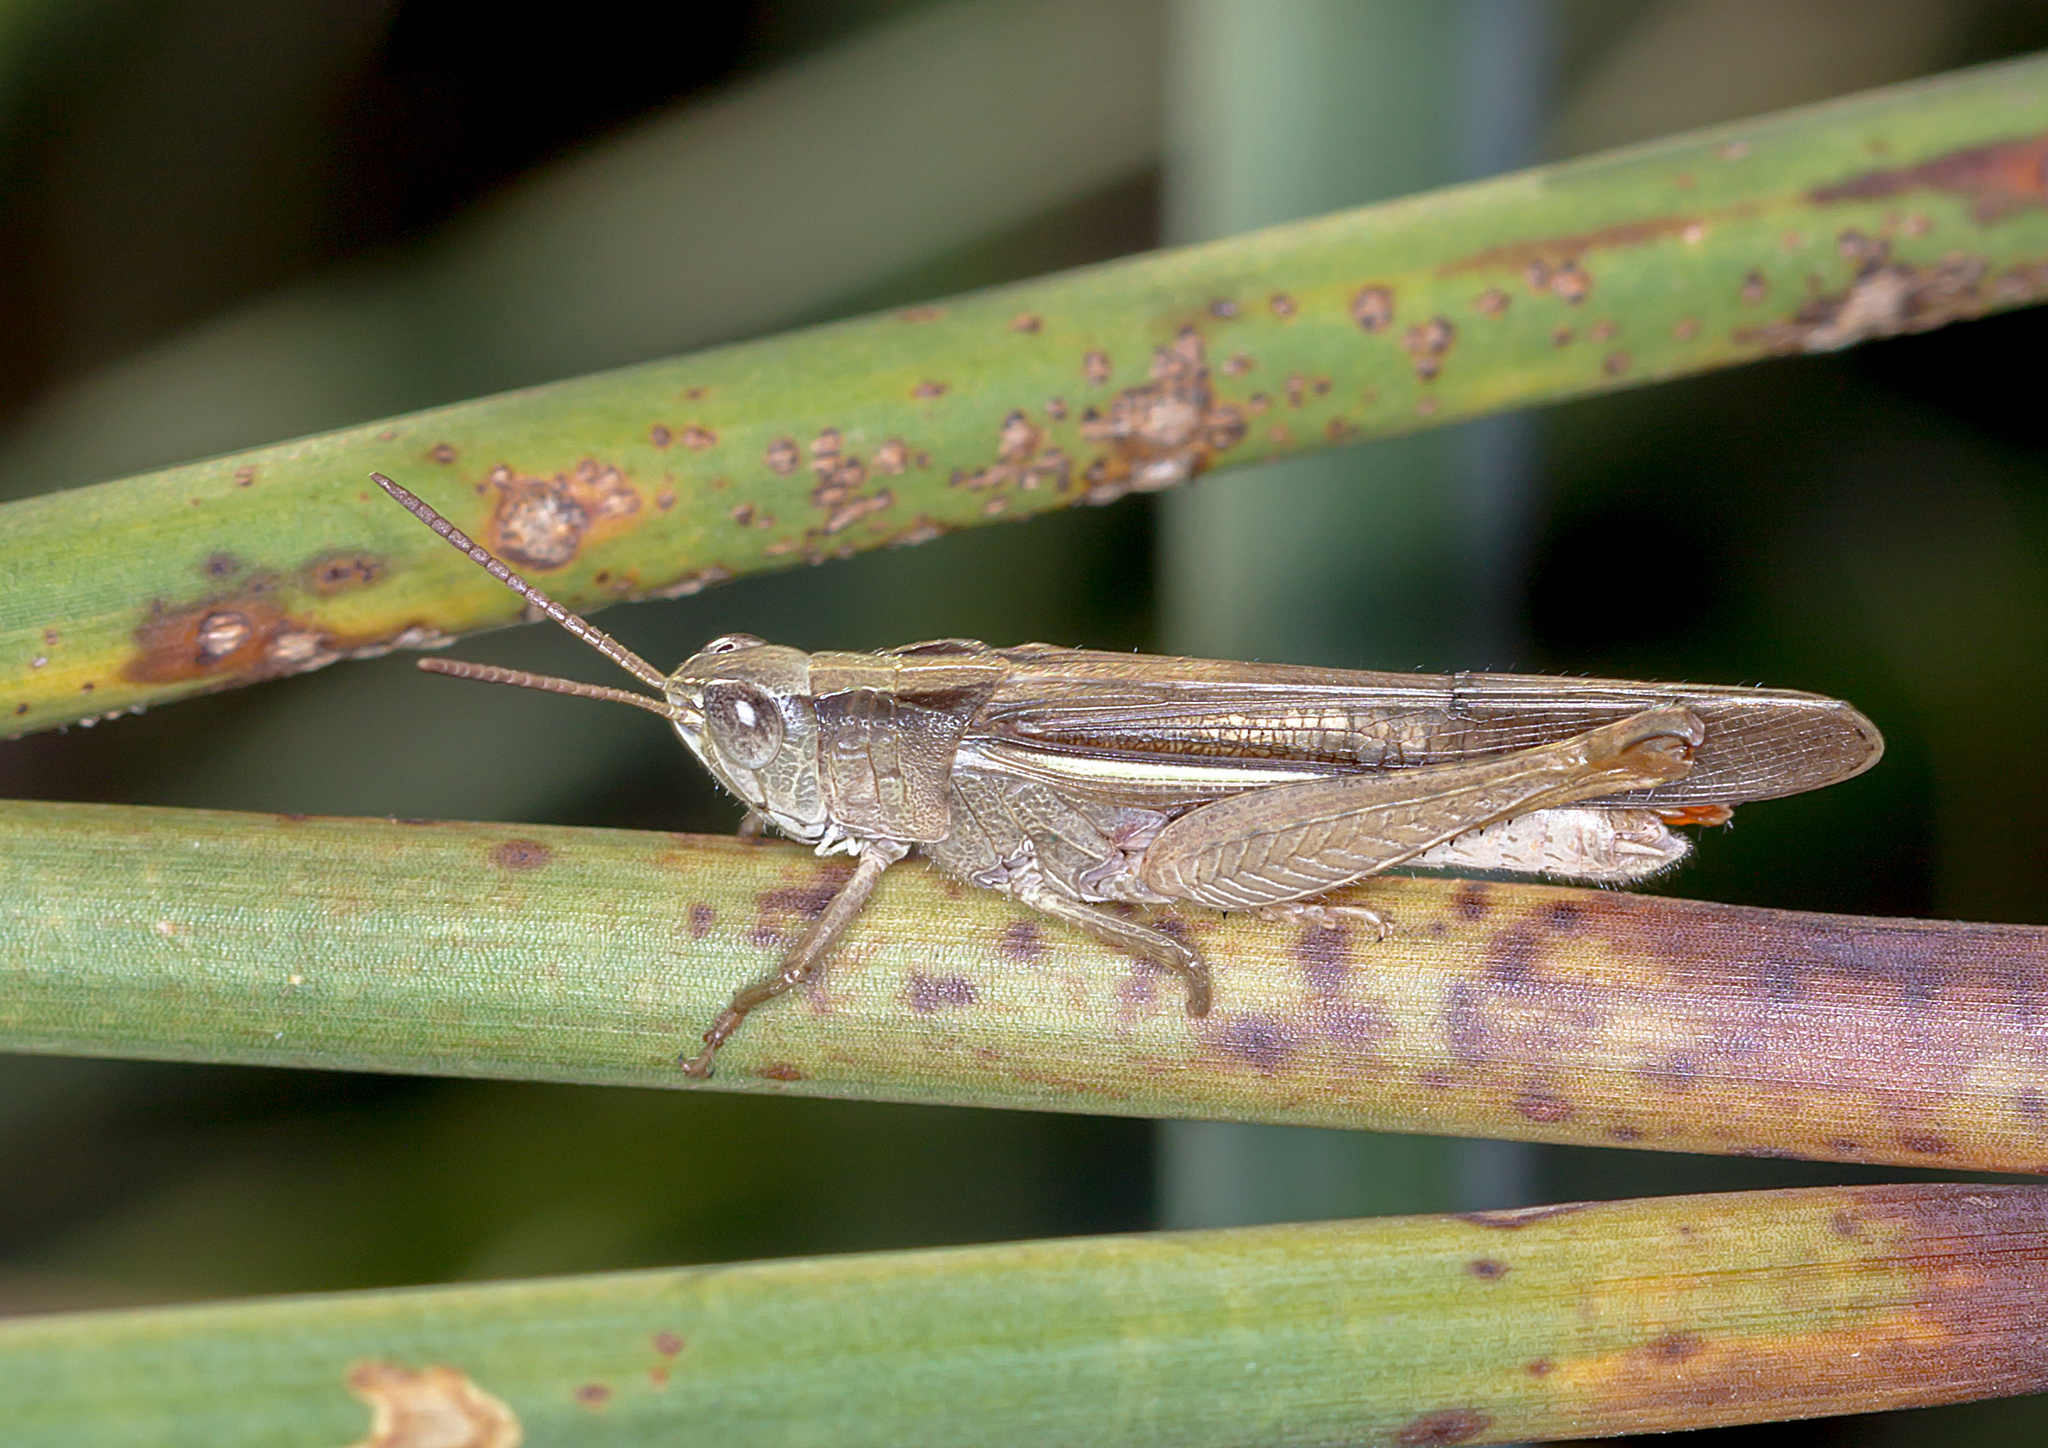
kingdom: Animalia
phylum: Arthropoda
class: Insecta
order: Orthoptera
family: Acrididae
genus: Schizobothrus
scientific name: Schizobothrus flavovittatus
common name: Disappearing grasshopper
